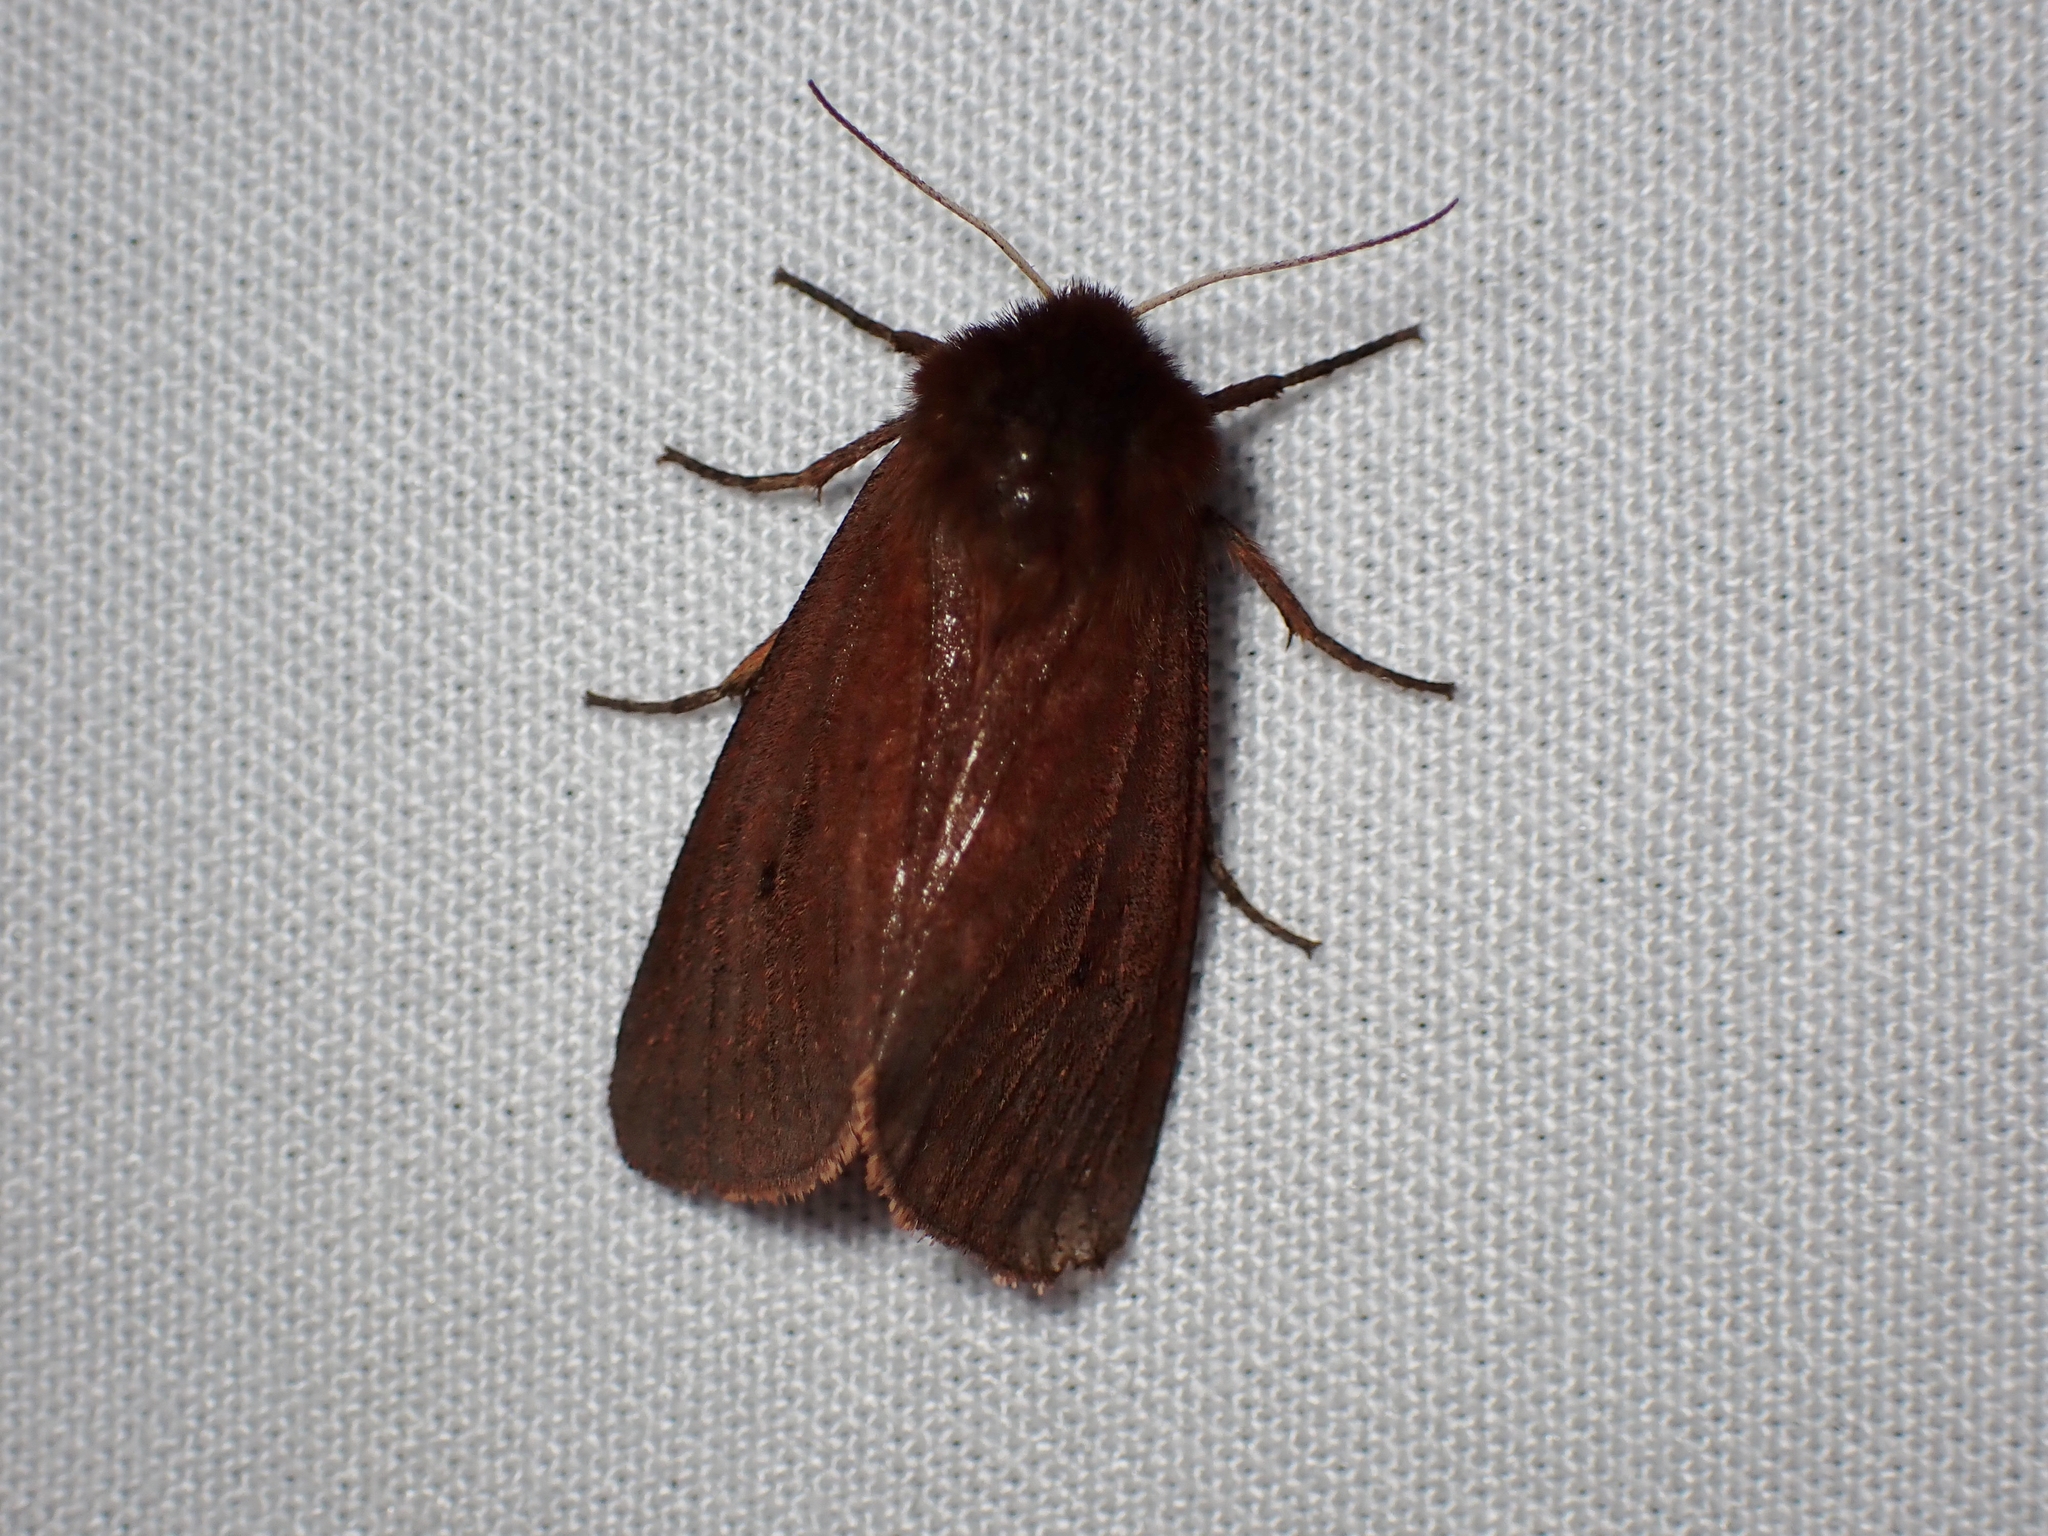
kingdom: Animalia
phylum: Arthropoda
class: Insecta
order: Lepidoptera
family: Erebidae
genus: Phragmatobia
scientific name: Phragmatobia fuliginosa
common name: Ruby tiger
